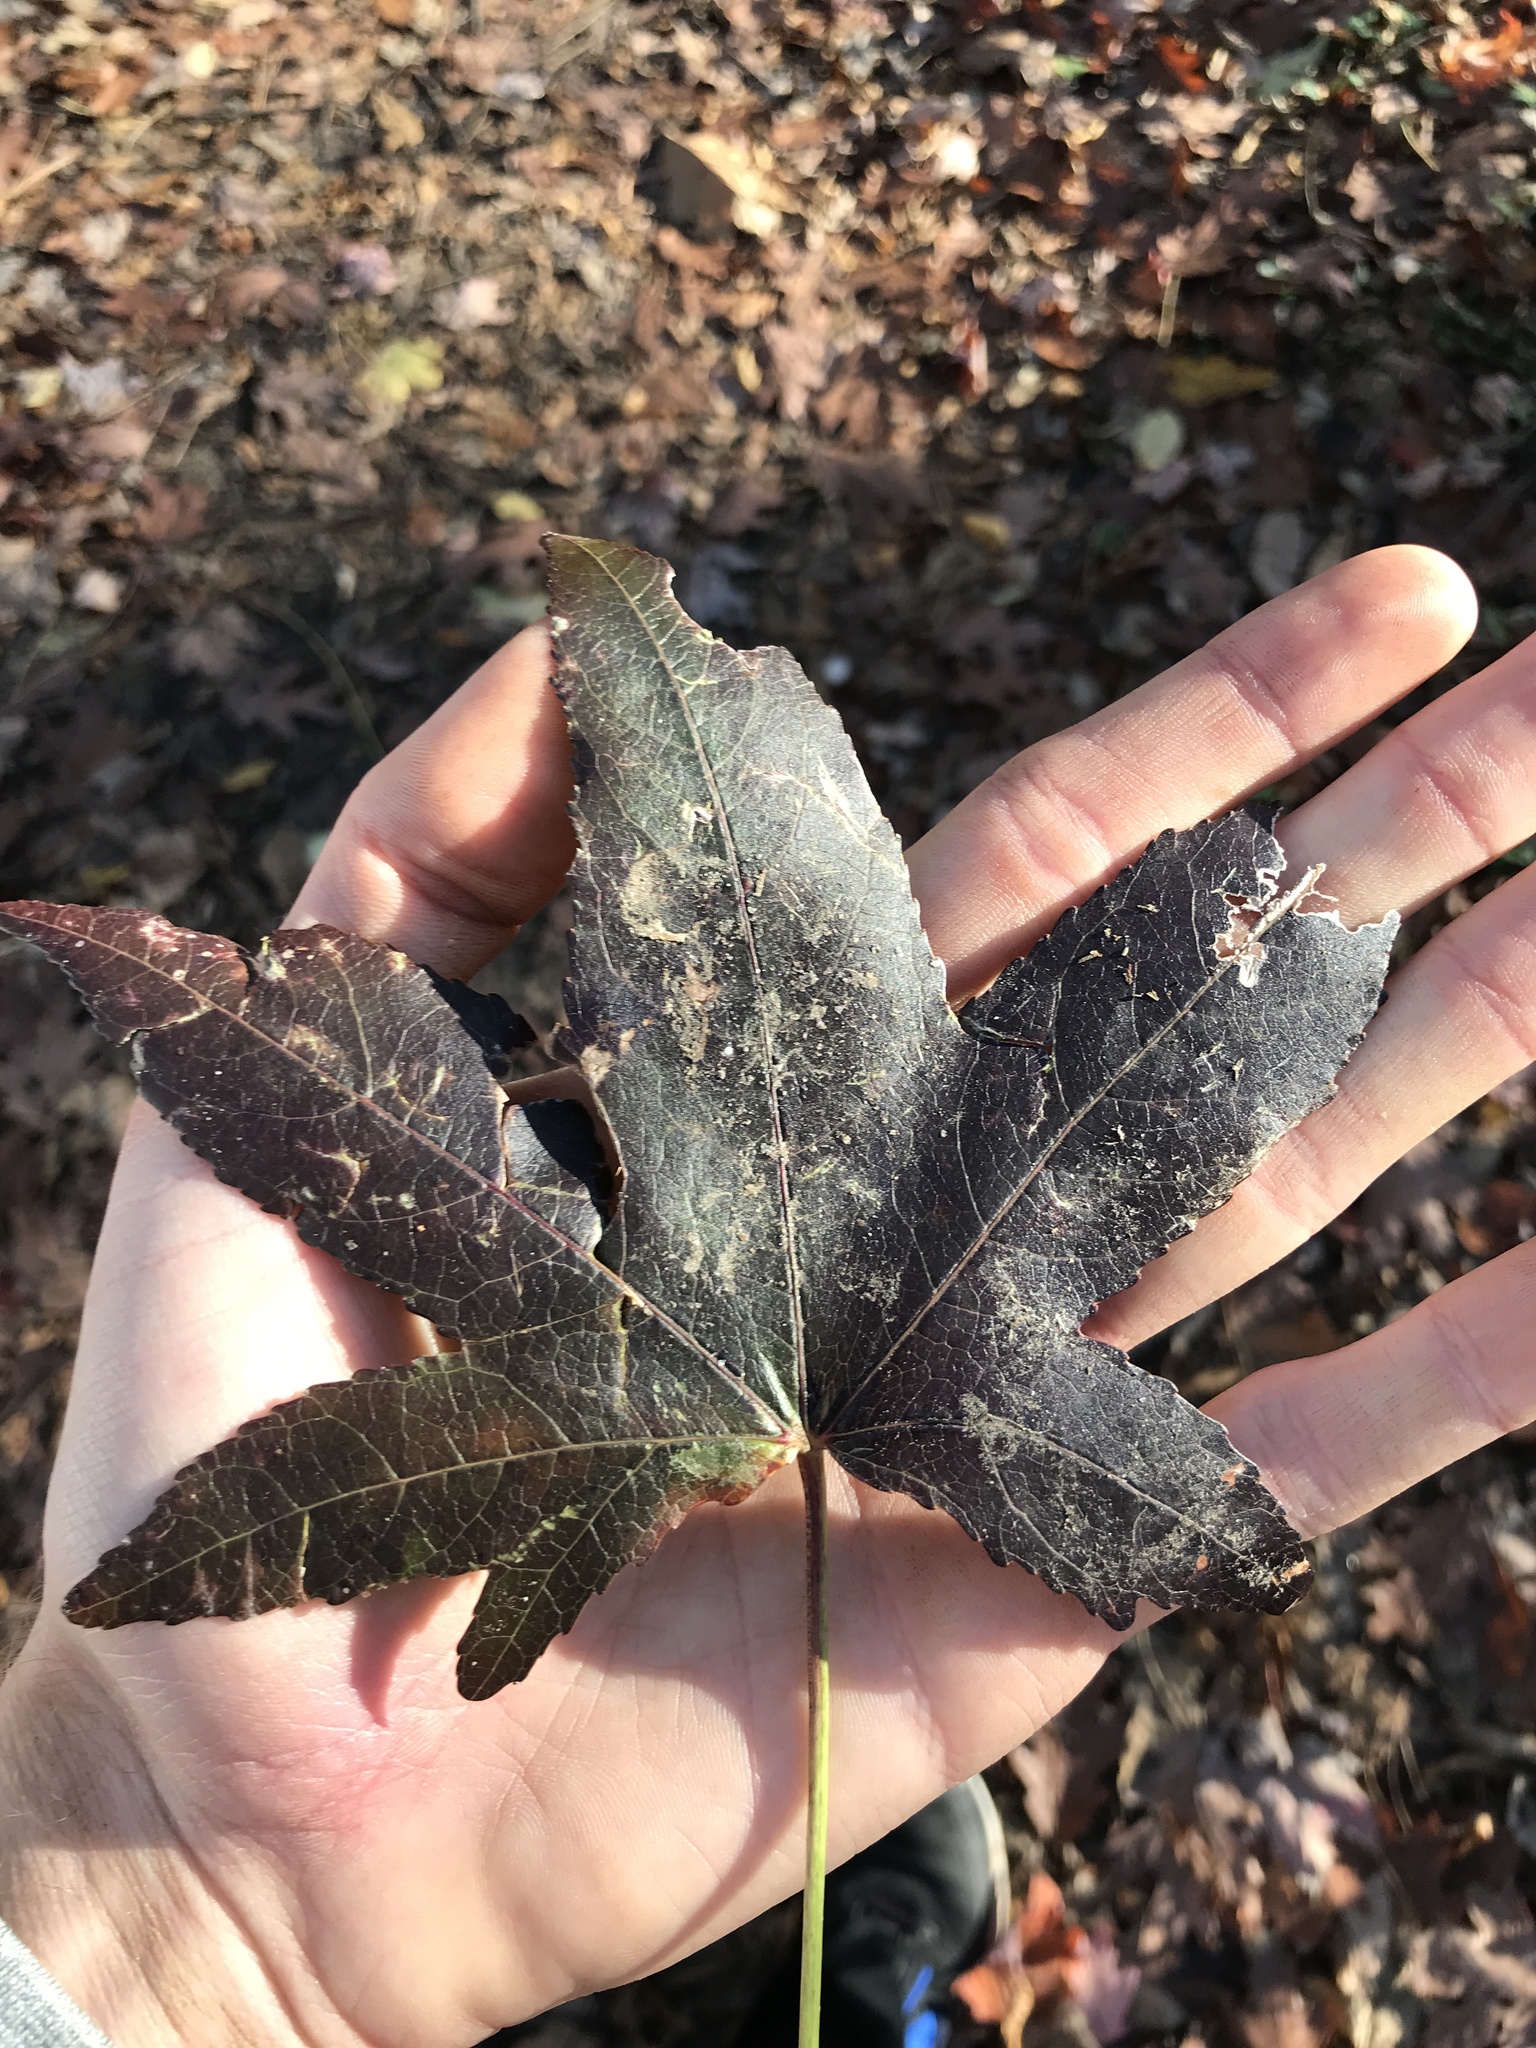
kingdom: Plantae
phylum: Tracheophyta
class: Magnoliopsida
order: Saxifragales
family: Altingiaceae
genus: Liquidambar
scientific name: Liquidambar styraciflua
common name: Sweet gum
